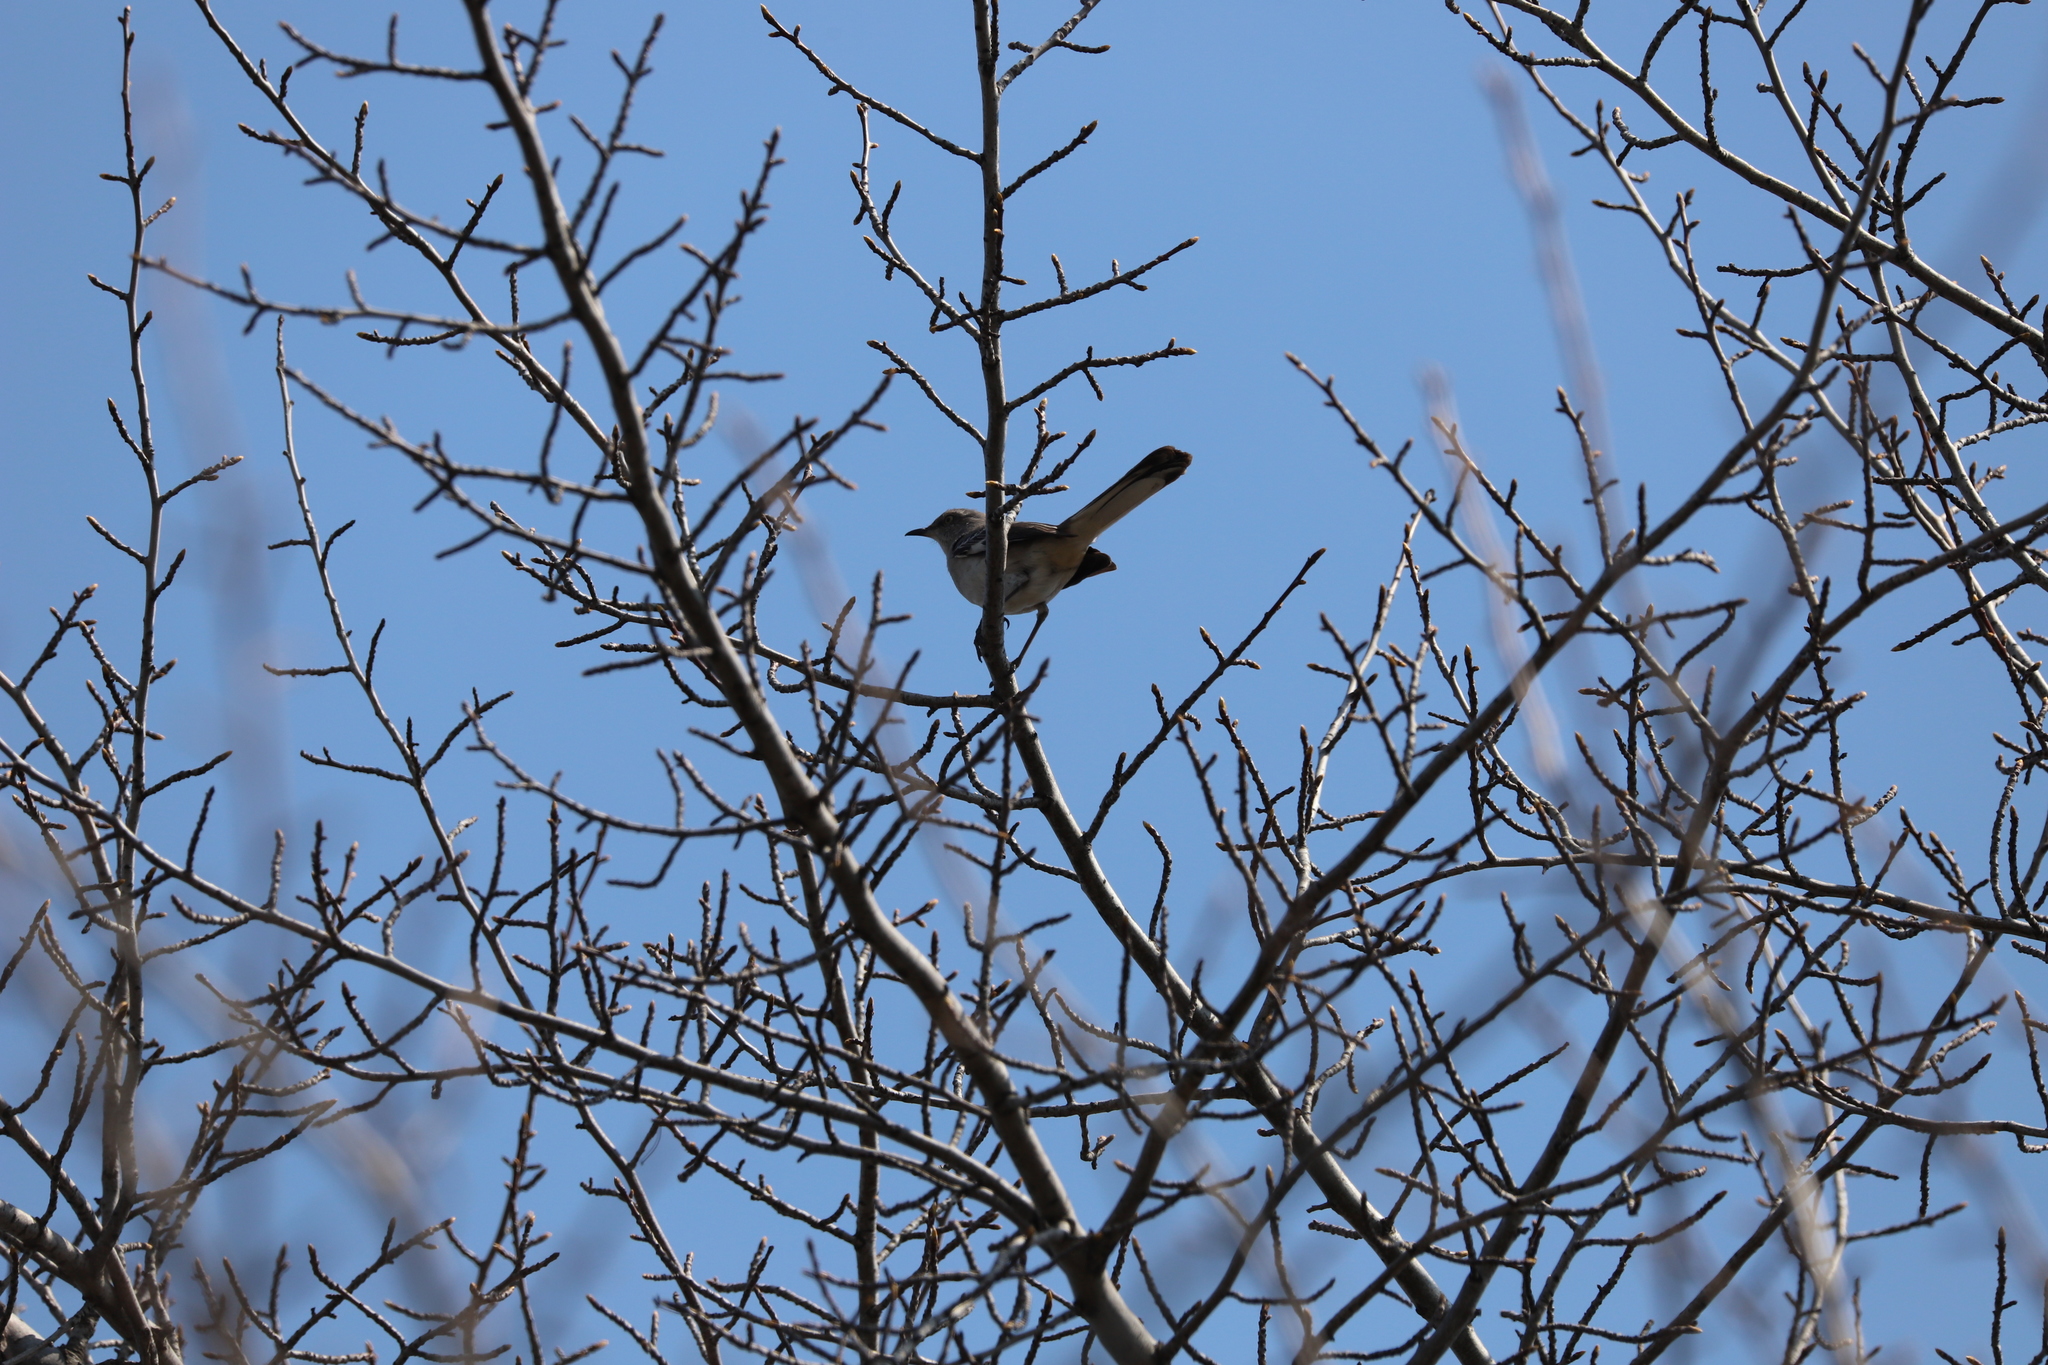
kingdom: Animalia
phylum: Chordata
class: Aves
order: Passeriformes
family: Mimidae
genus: Mimus
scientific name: Mimus polyglottos
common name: Northern mockingbird
